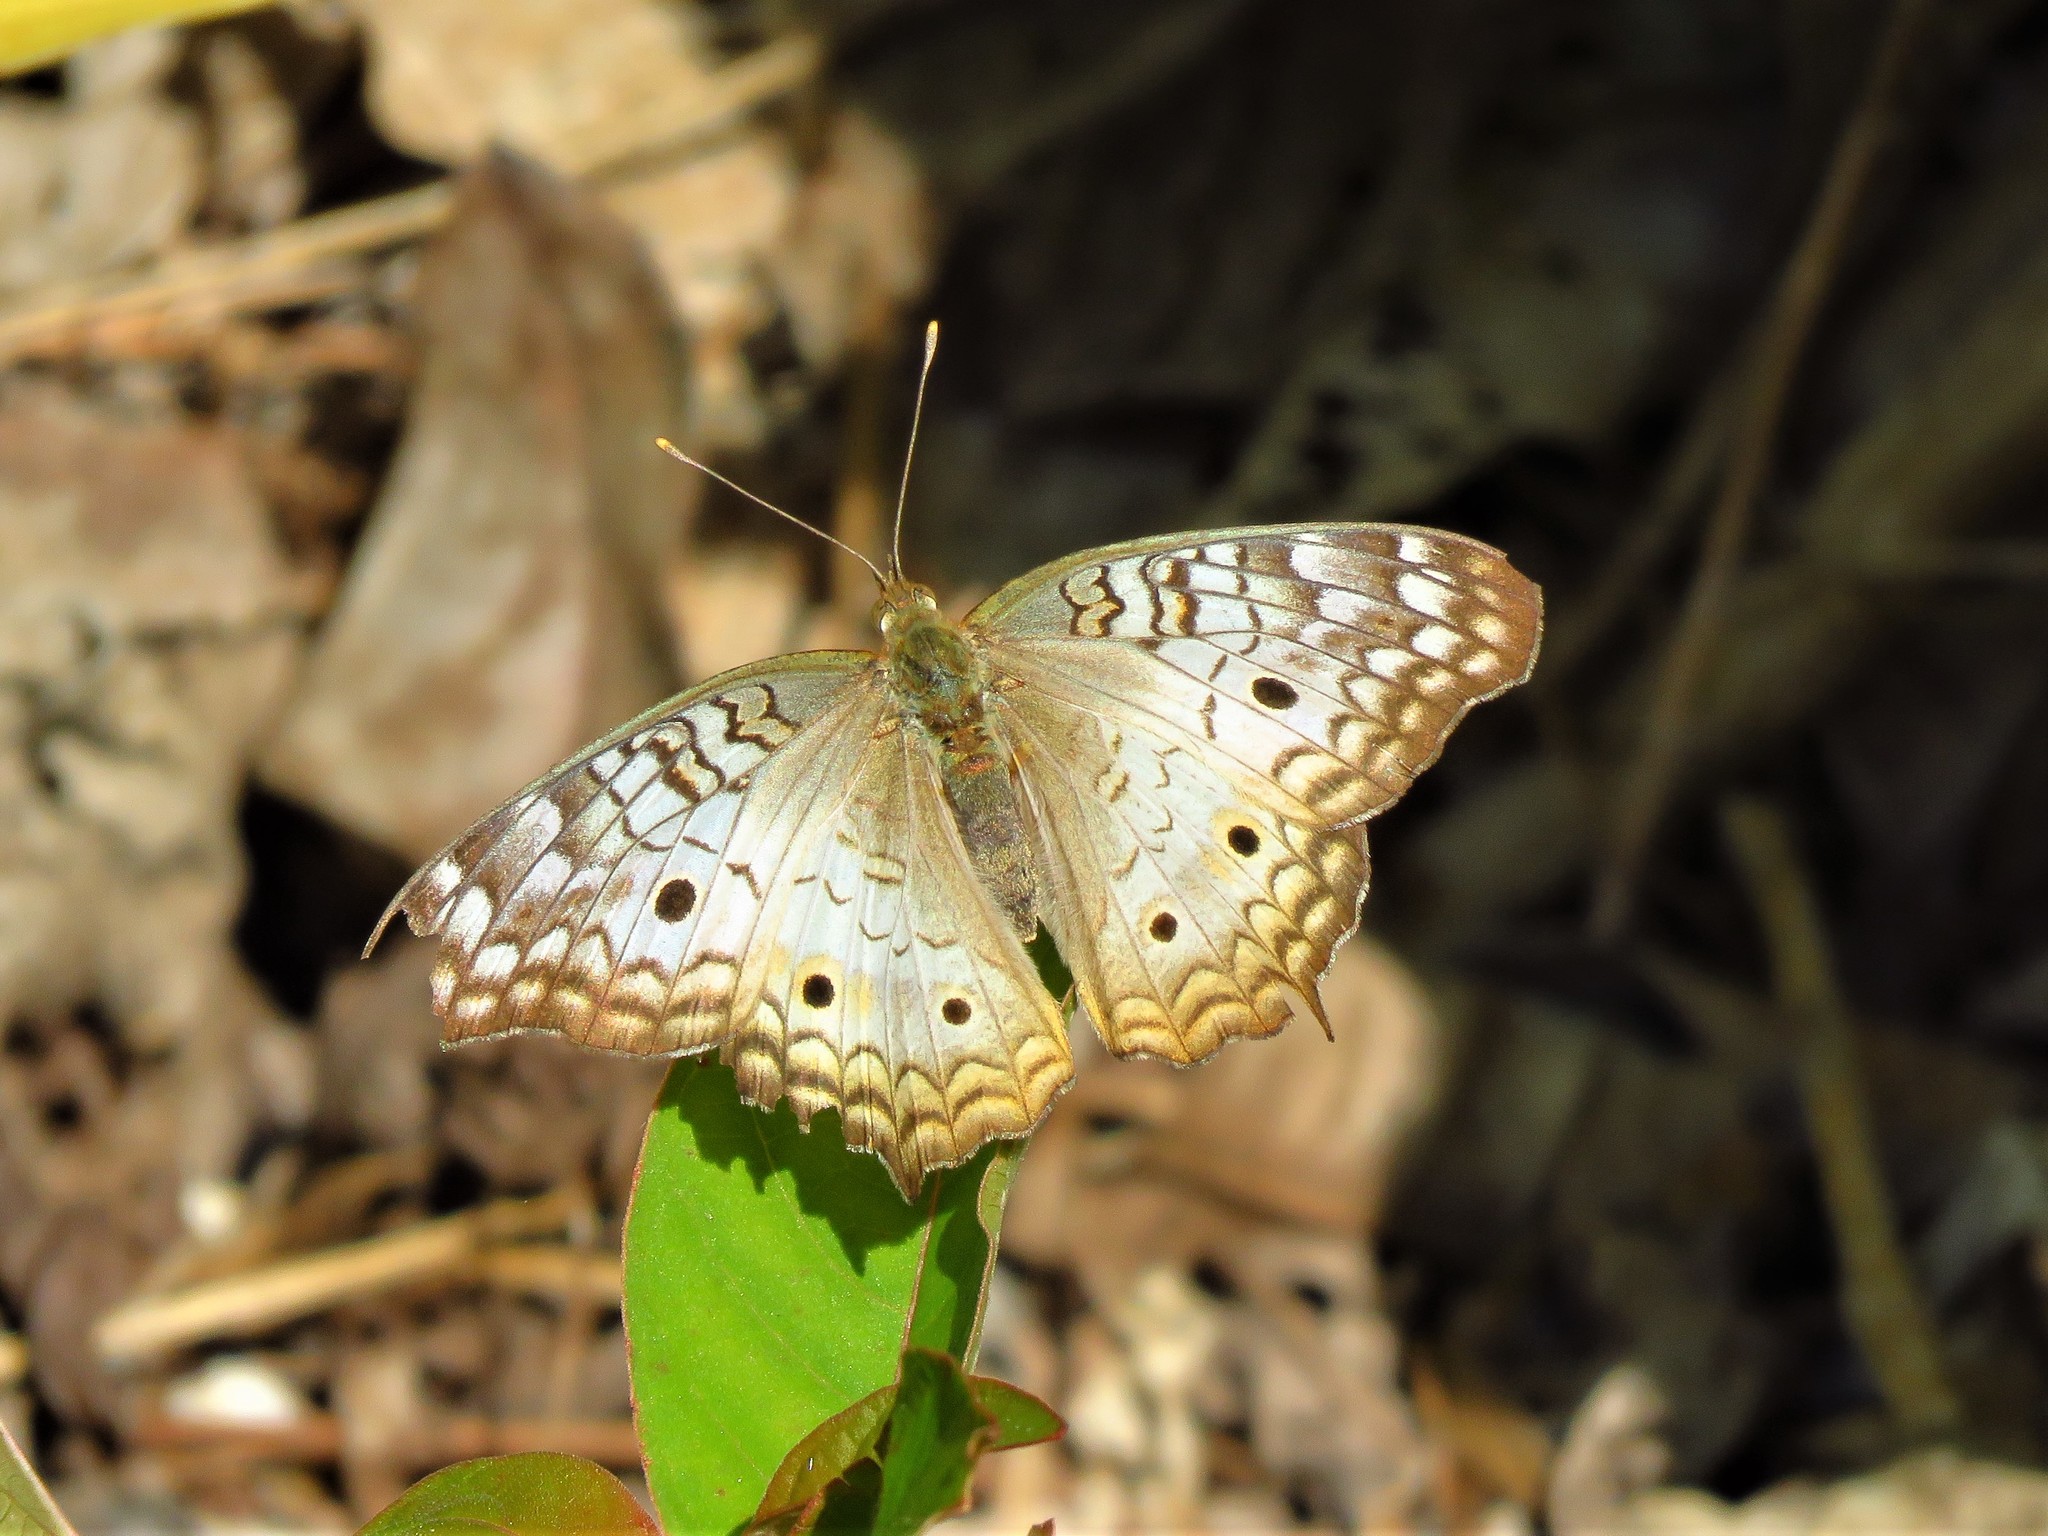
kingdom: Animalia
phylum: Arthropoda
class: Insecta
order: Lepidoptera
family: Nymphalidae
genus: Anartia
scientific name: Anartia jatrophae
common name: White peacock
